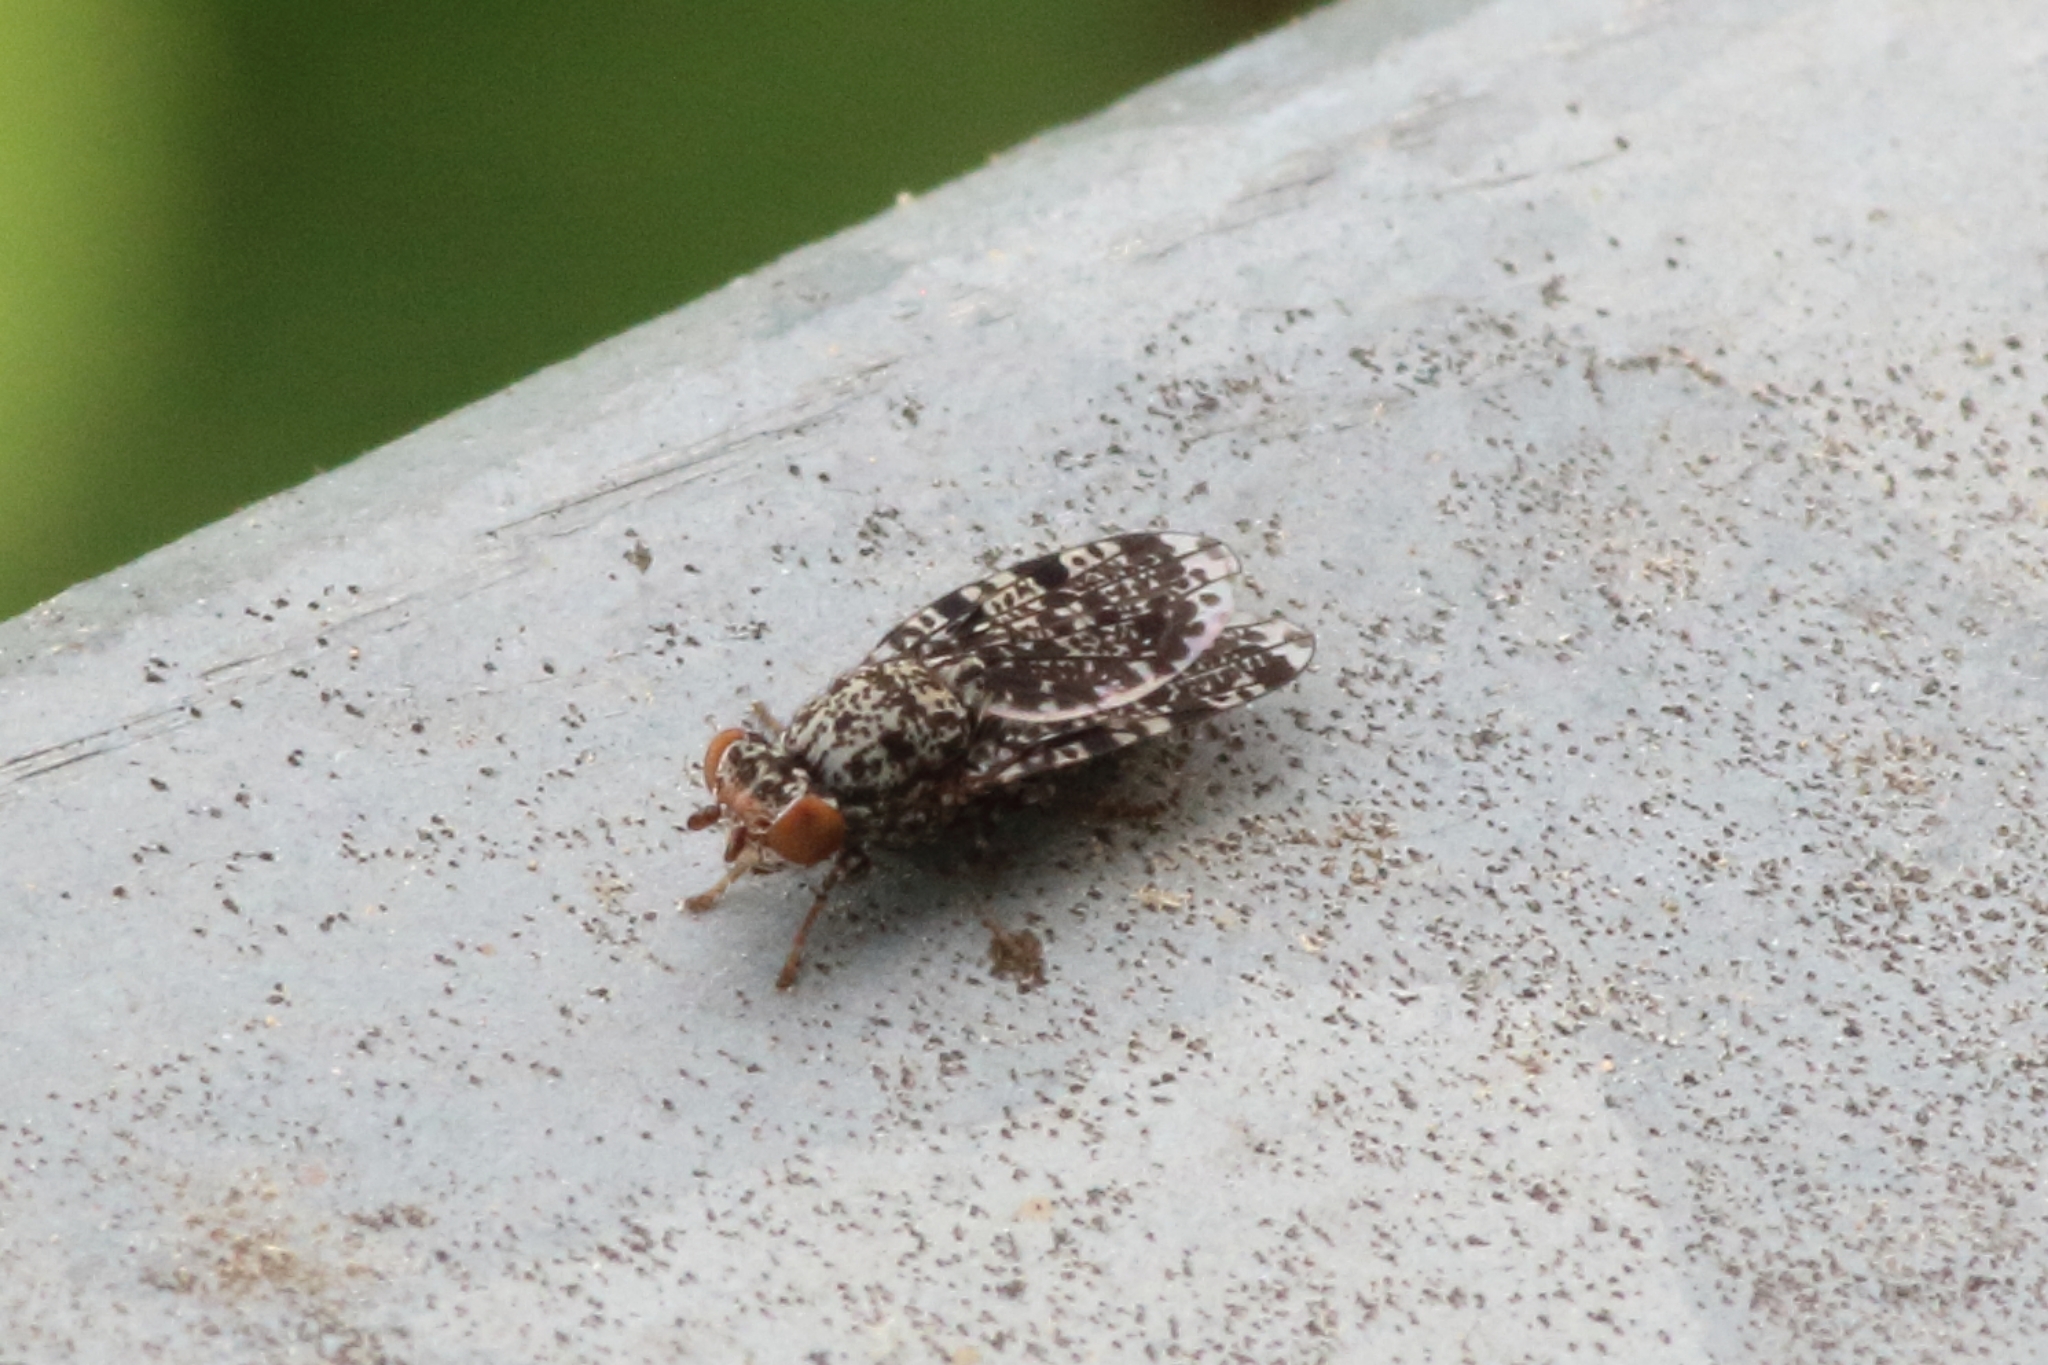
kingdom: Animalia
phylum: Arthropoda
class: Insecta
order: Diptera
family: Ulidiidae
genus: Callopistromyia
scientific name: Callopistromyia annulipes
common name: Peacock fly
